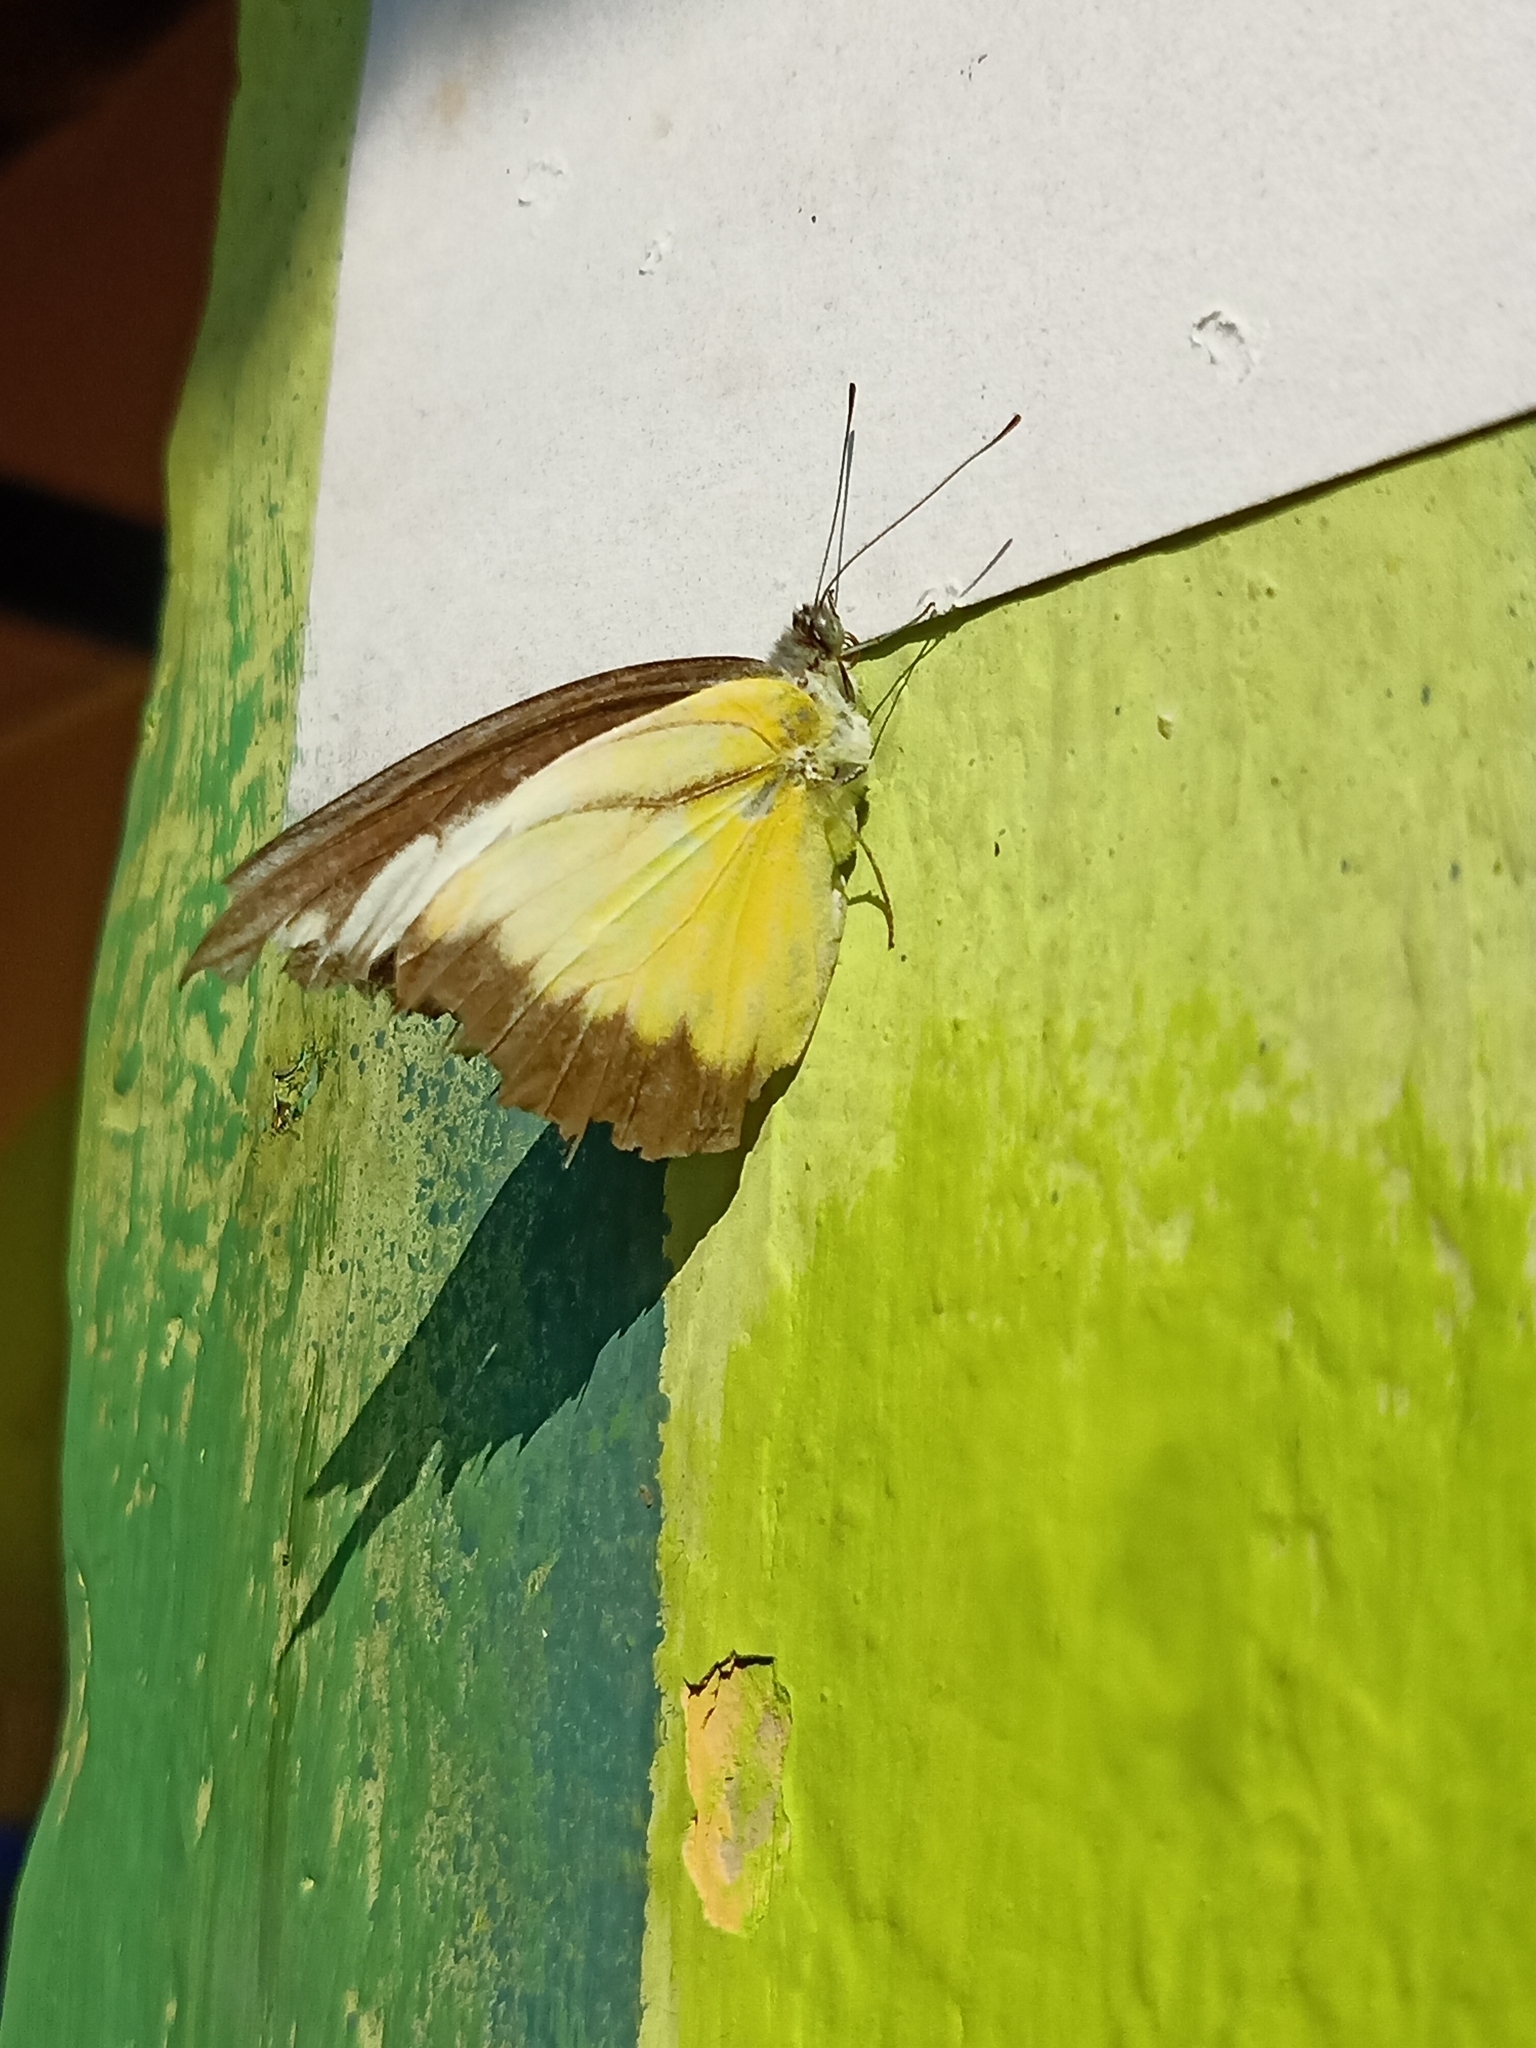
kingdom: Animalia
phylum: Arthropoda
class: Insecta
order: Lepidoptera
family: Pieridae
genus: Appias
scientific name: Appias lyncida
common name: Chocolate albatross
